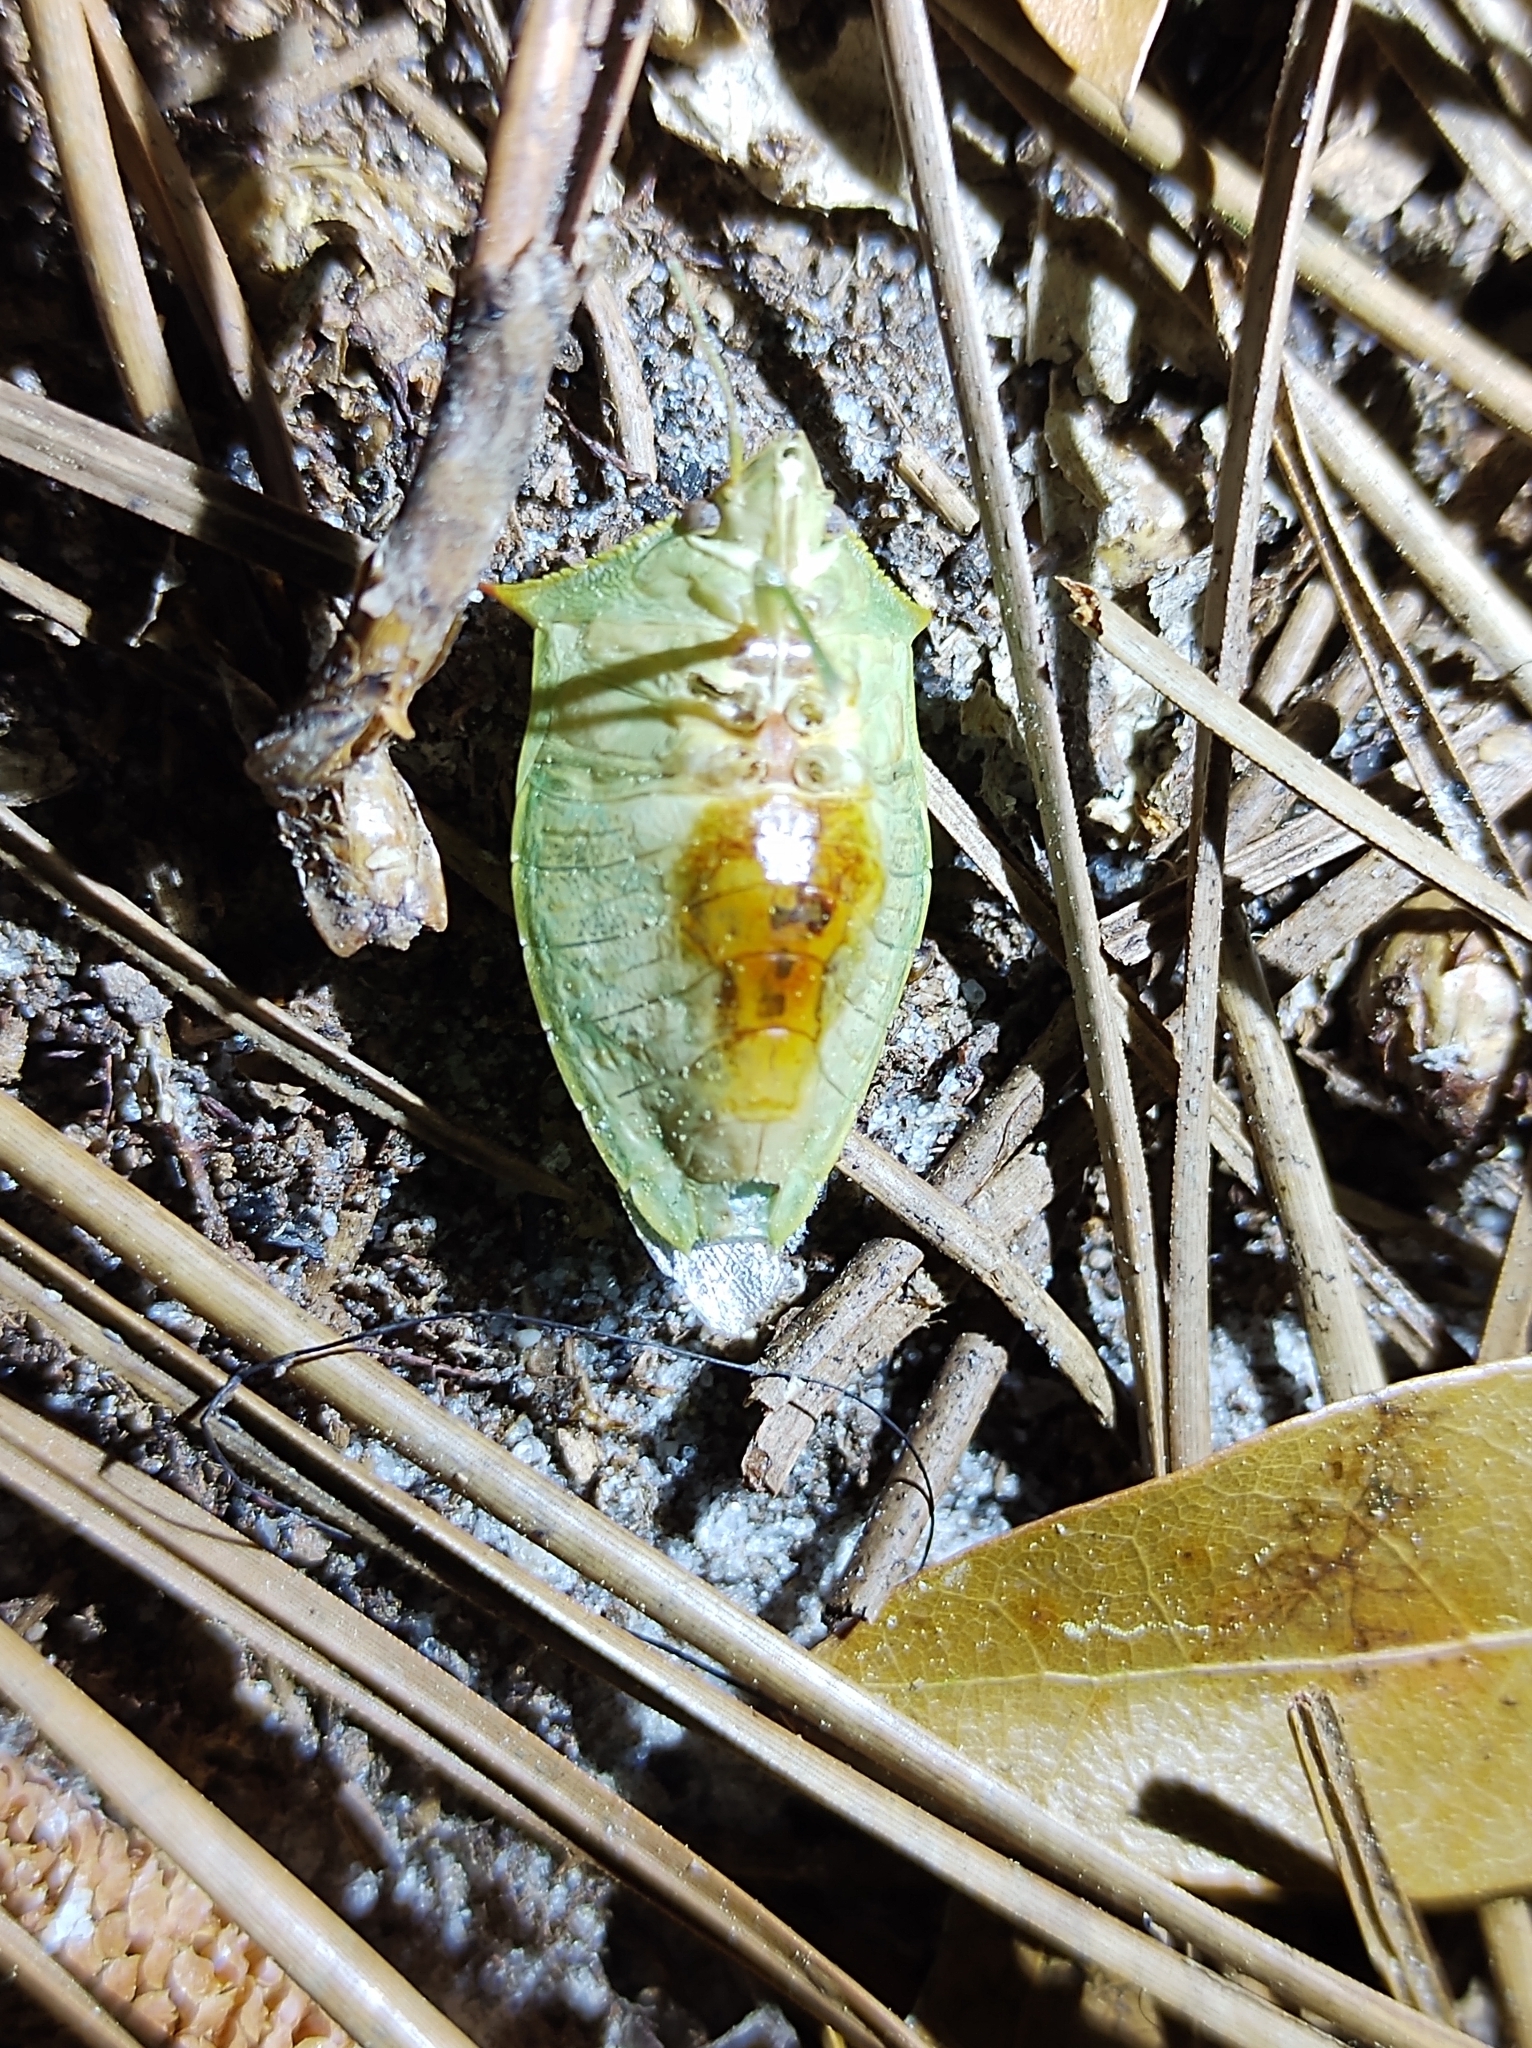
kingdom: Animalia
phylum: Arthropoda
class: Insecta
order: Hemiptera
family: Pentatomidae
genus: Loxa
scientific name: Loxa flavicollis
